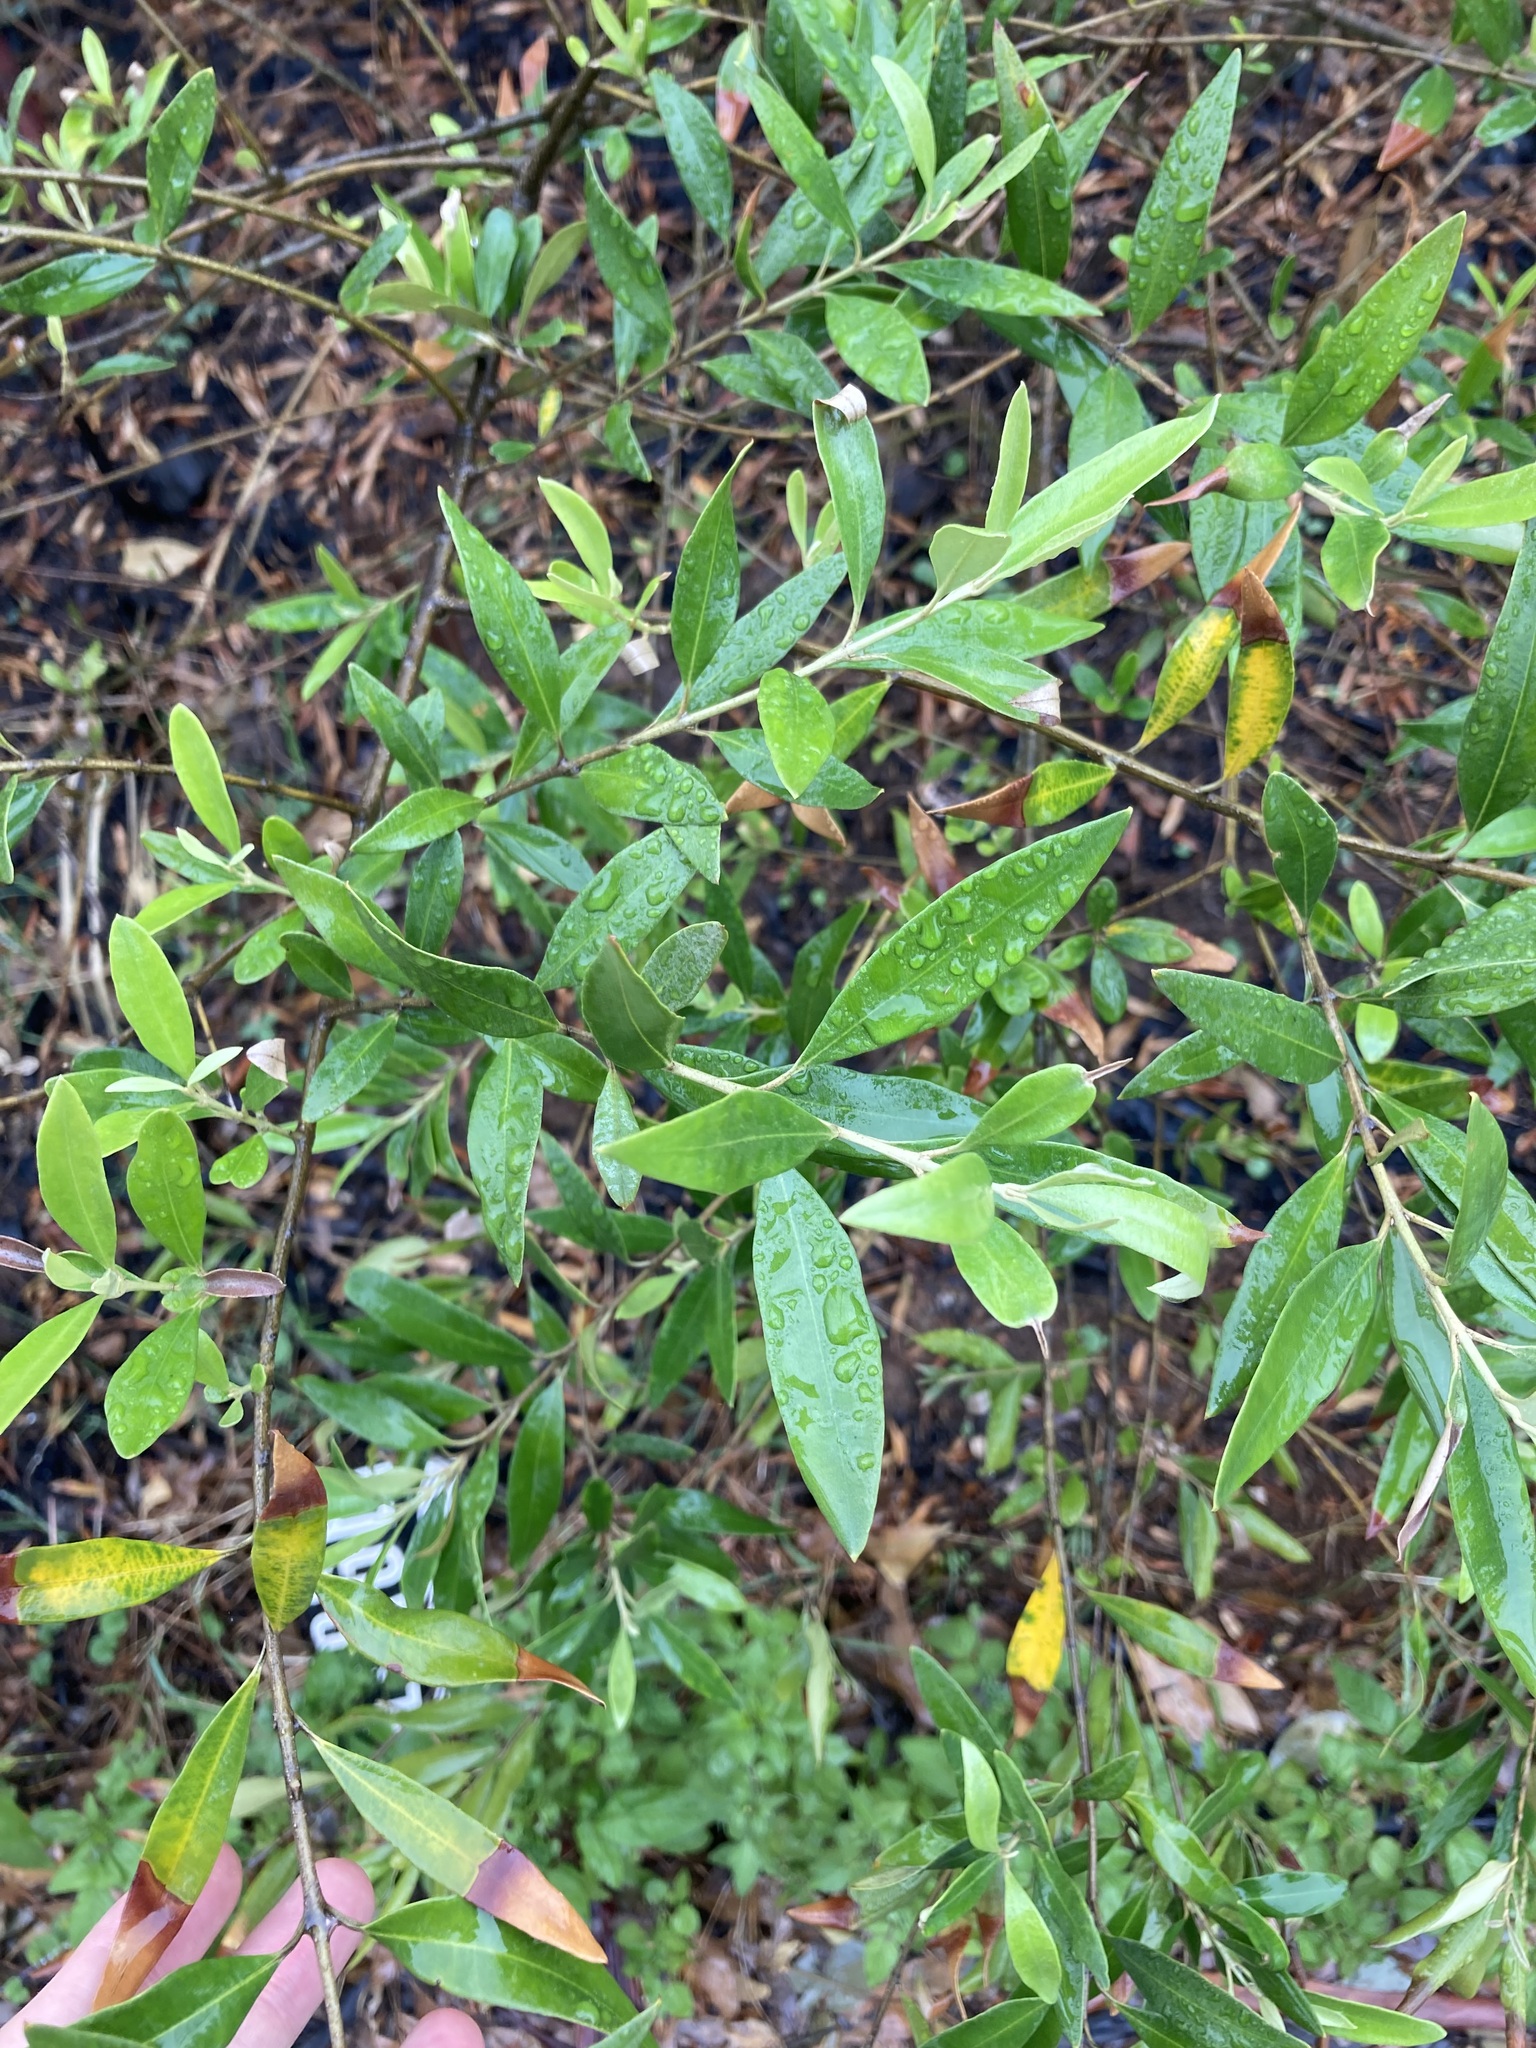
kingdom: Plantae
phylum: Tracheophyta
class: Magnoliopsida
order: Lamiales
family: Oleaceae
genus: Olea
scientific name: Olea europaea
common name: Olive
